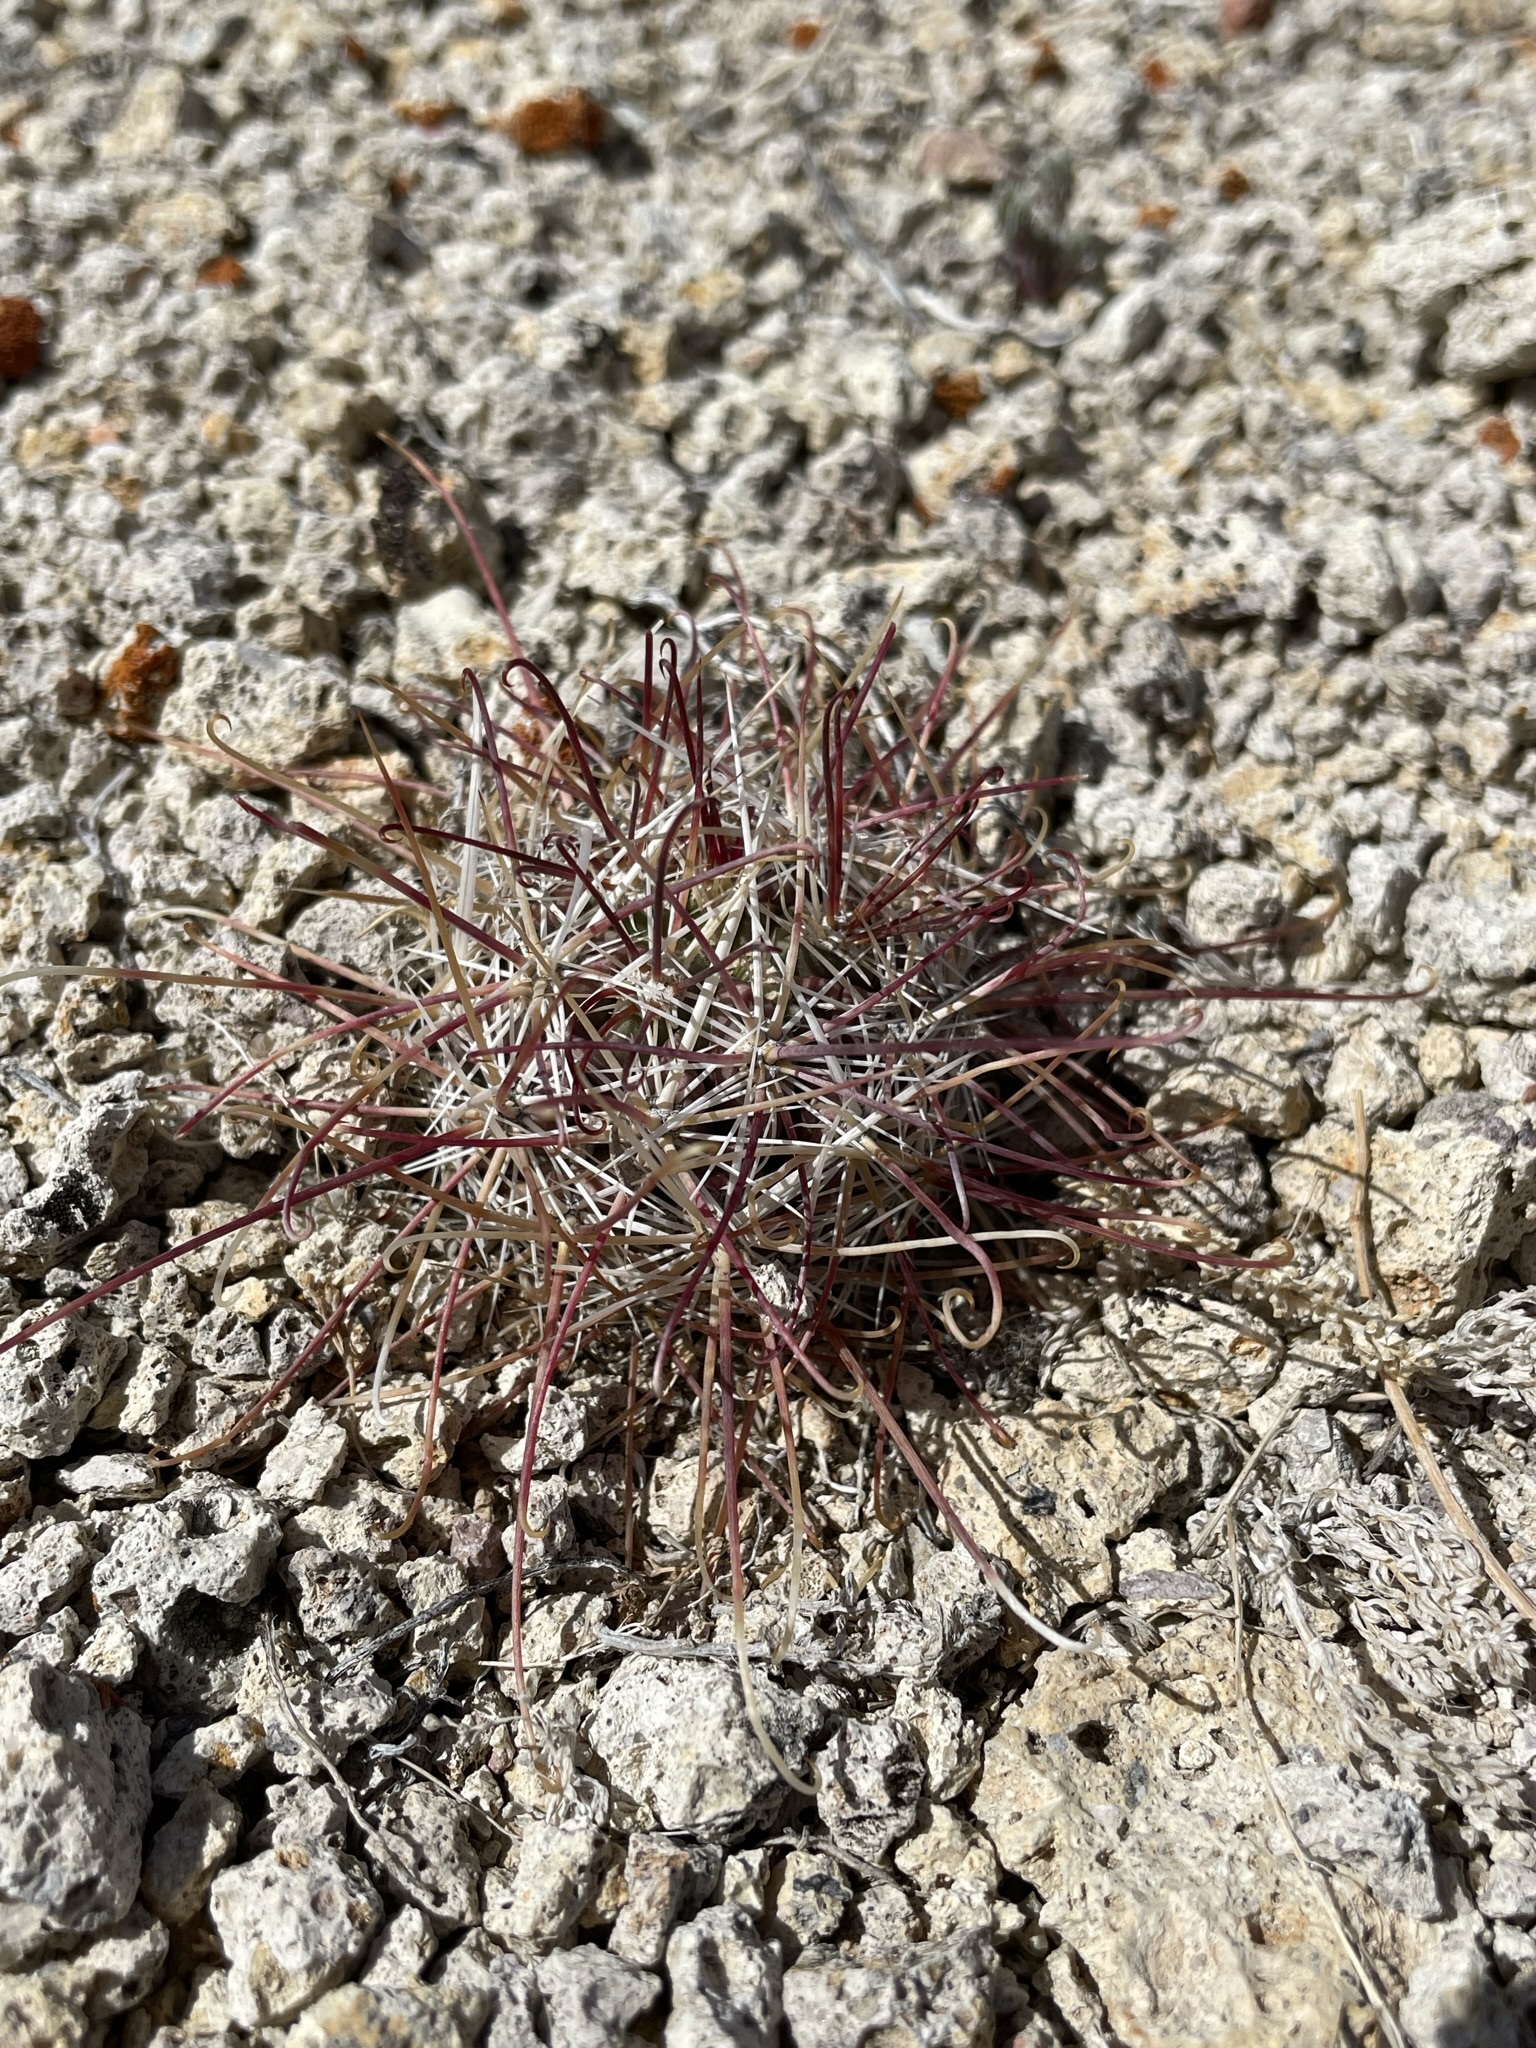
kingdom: Plantae
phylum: Tracheophyta
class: Magnoliopsida
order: Caryophyllales
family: Cactaceae
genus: Sclerocactus
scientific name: Sclerocactus polyancistrus
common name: Mohave fishhook cactus
